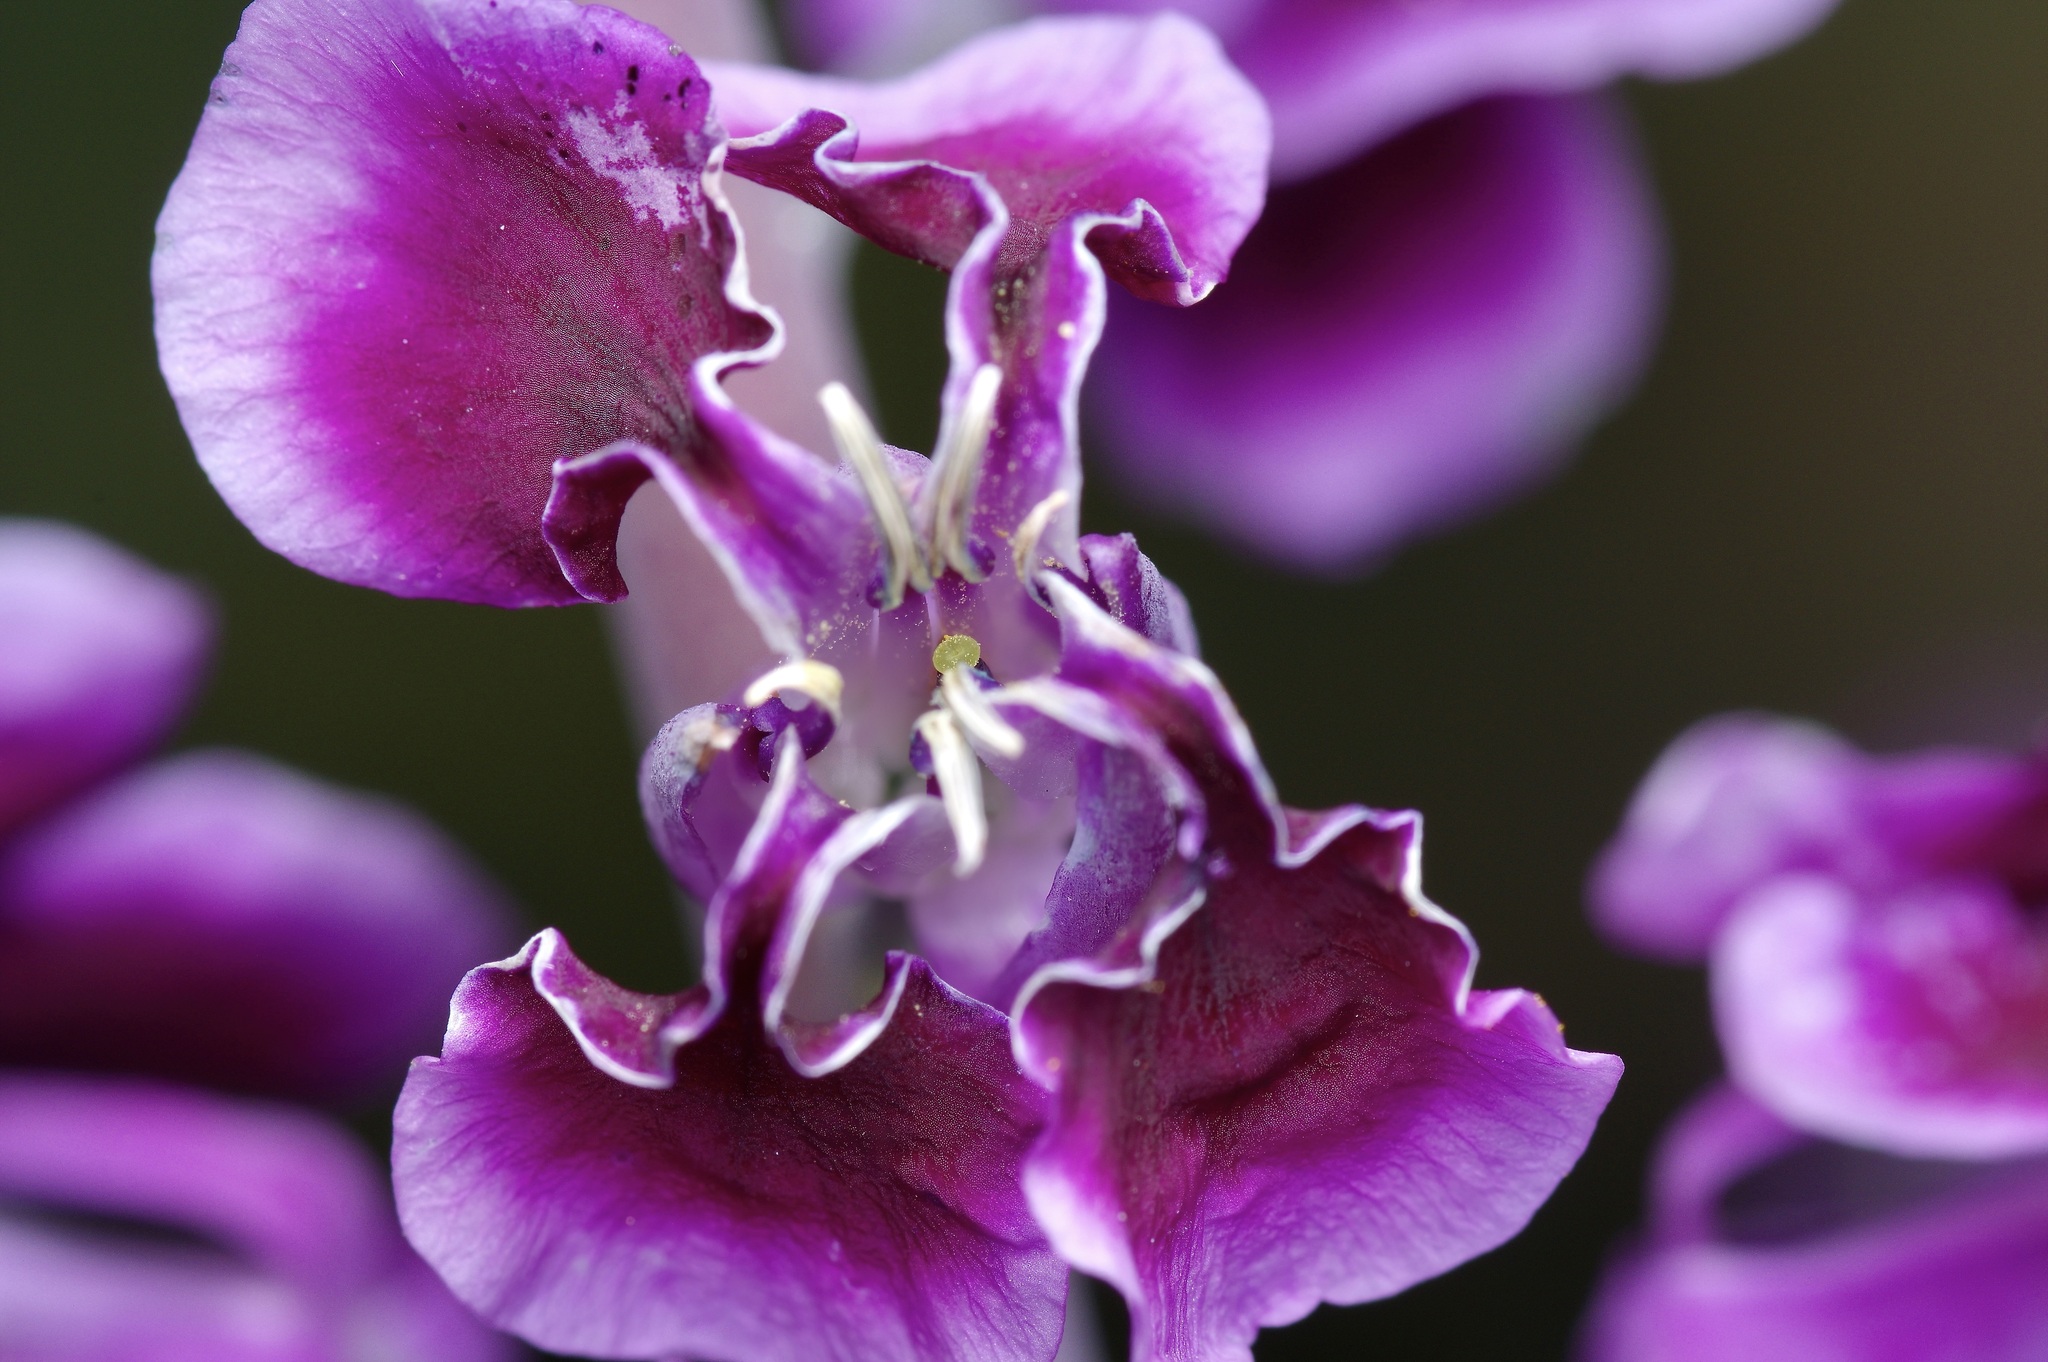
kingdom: Plantae
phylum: Tracheophyta
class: Magnoliopsida
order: Brassicales
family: Brassicaceae
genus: Streptanthus
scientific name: Streptanthus maculatus
